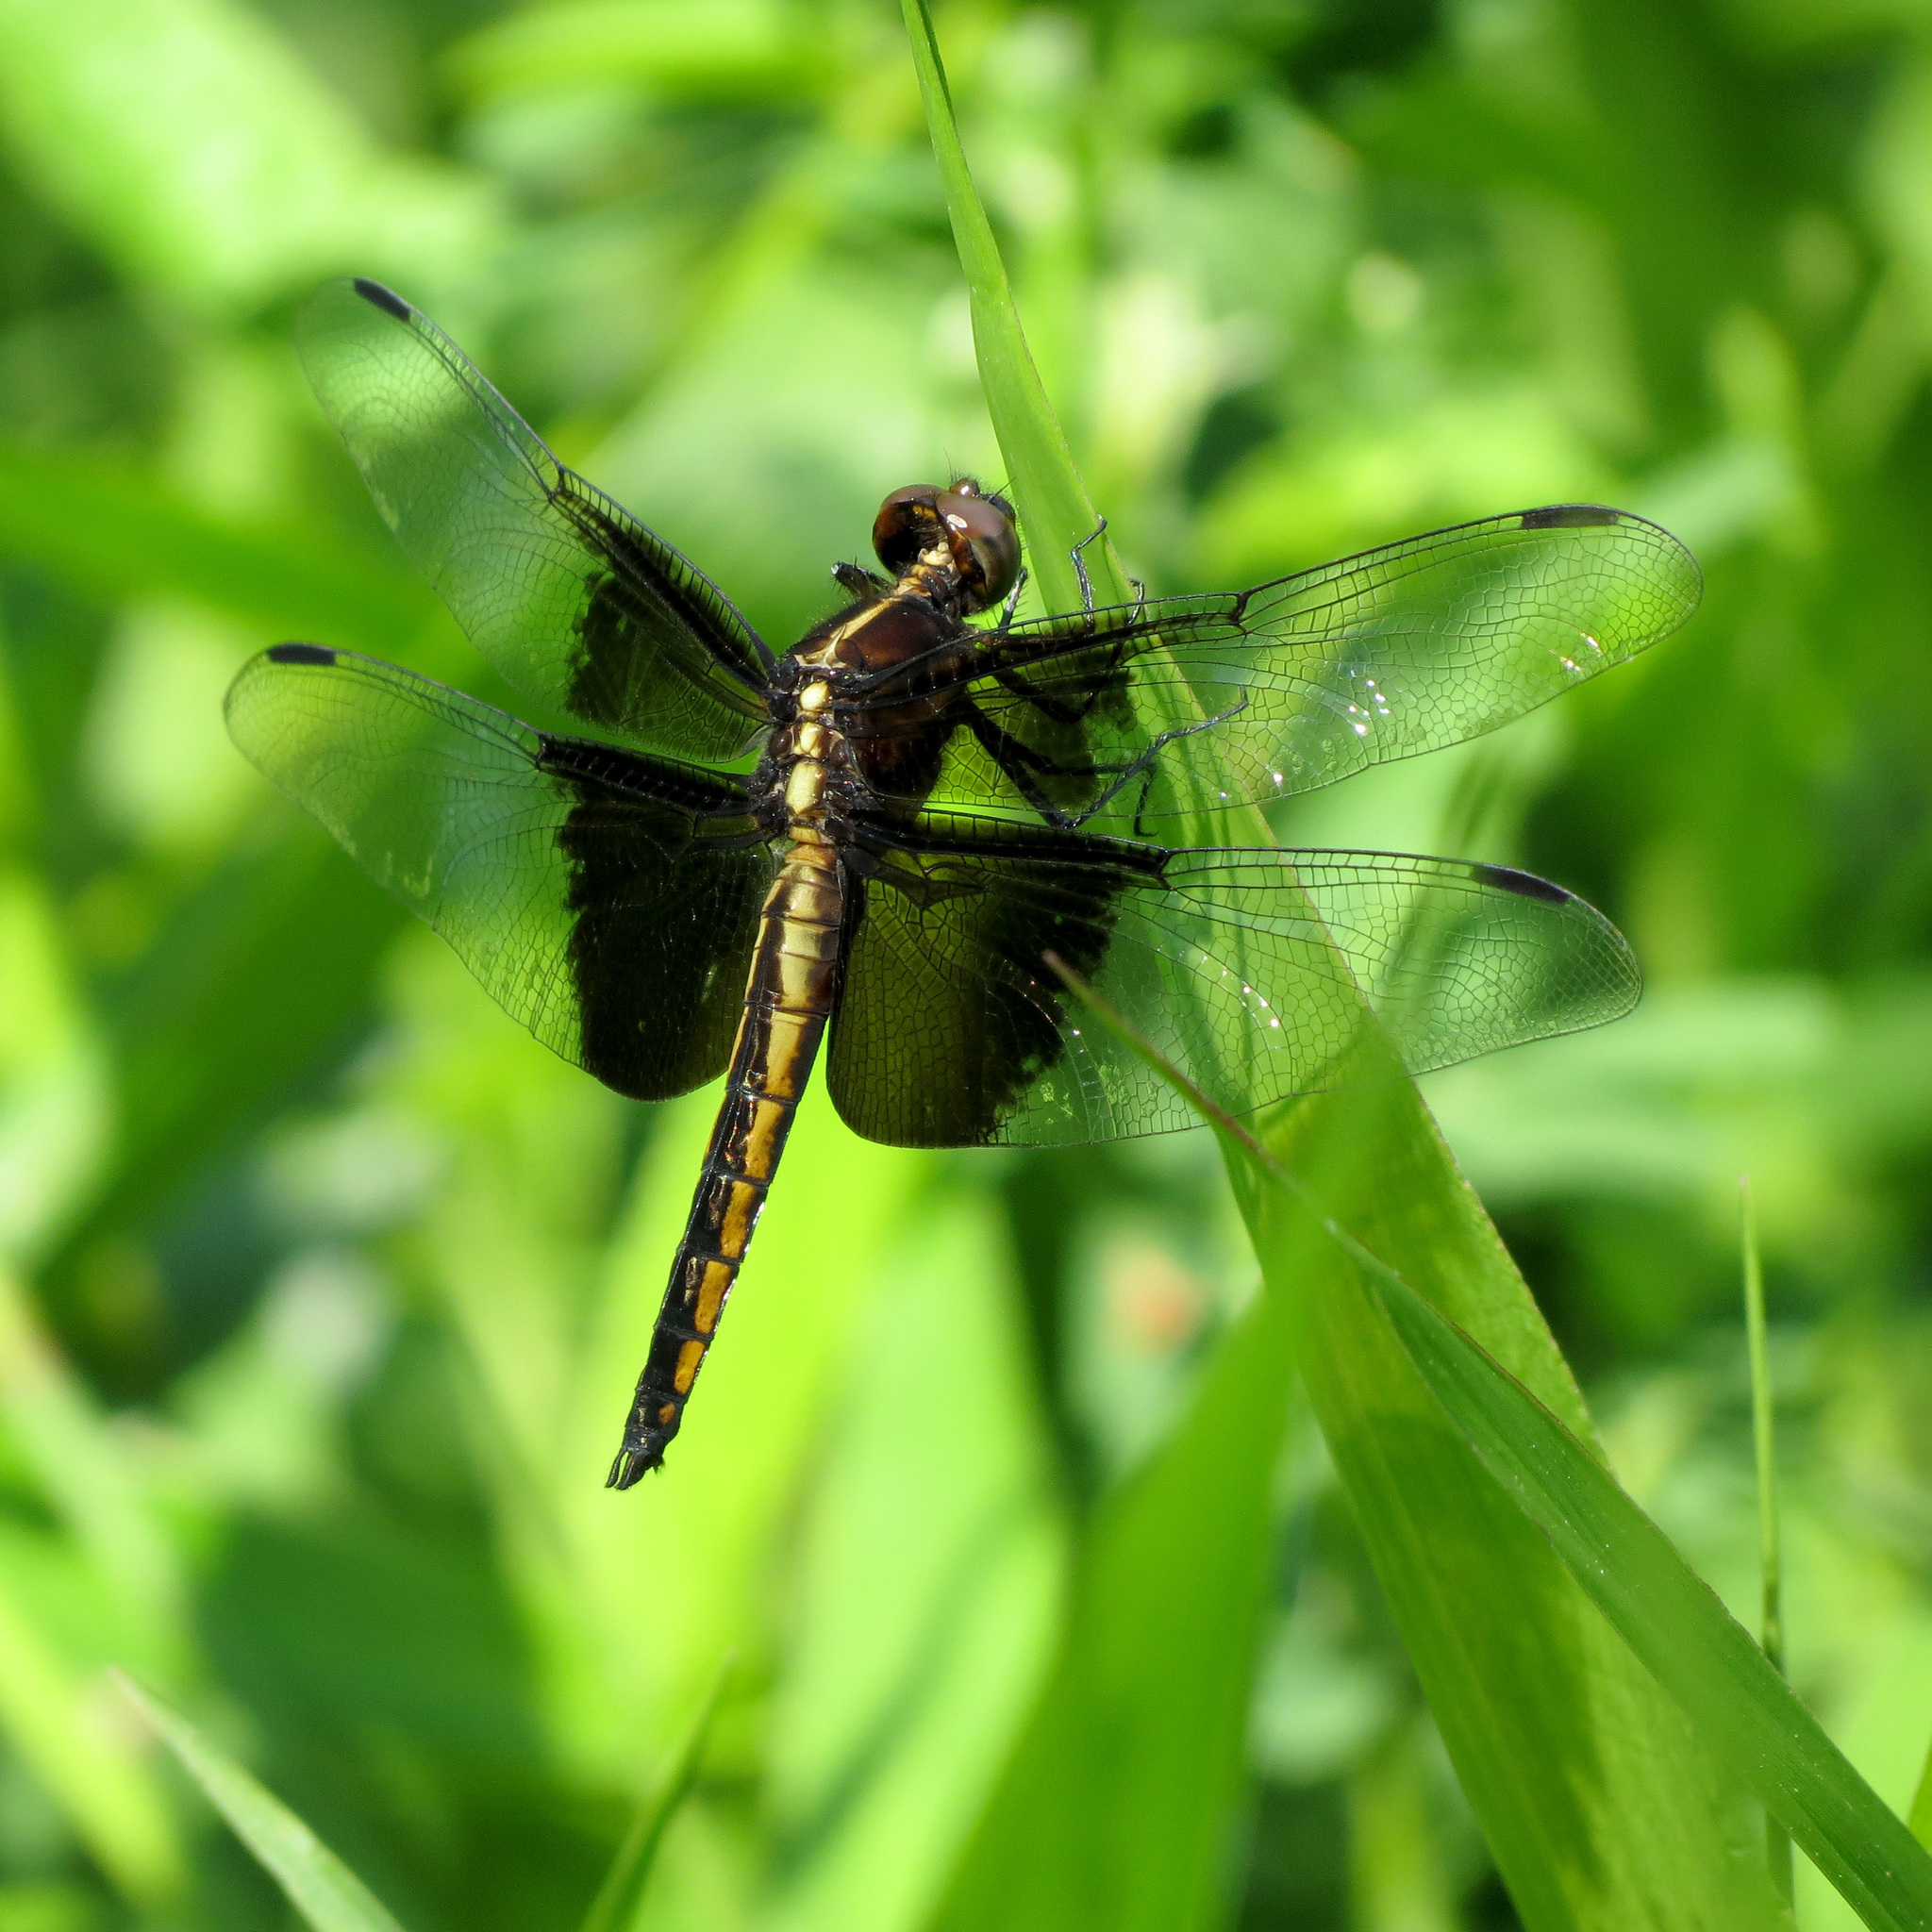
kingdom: Animalia
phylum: Arthropoda
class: Insecta
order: Odonata
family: Libellulidae
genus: Libellula
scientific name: Libellula luctuosa
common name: Widow skimmer
